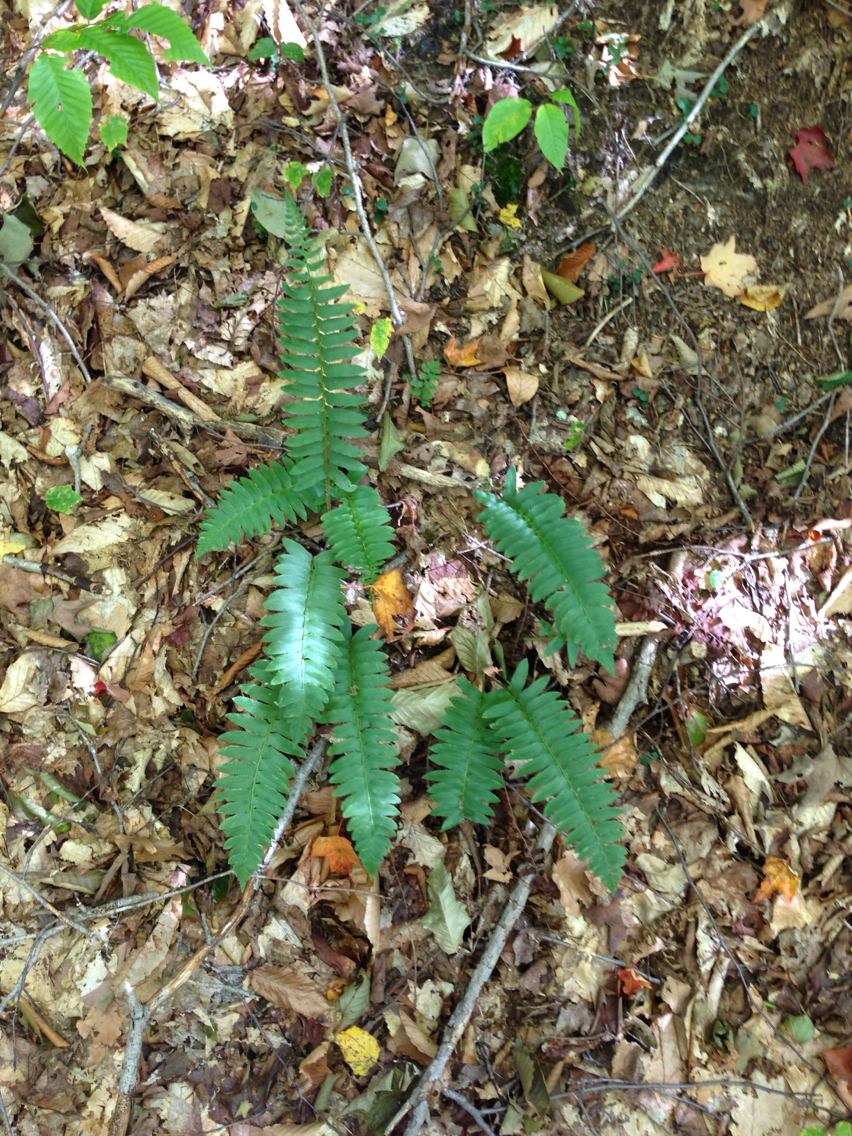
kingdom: Plantae
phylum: Tracheophyta
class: Polypodiopsida
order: Polypodiales
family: Dryopteridaceae
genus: Polystichum
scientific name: Polystichum acrostichoides
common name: Christmas fern
